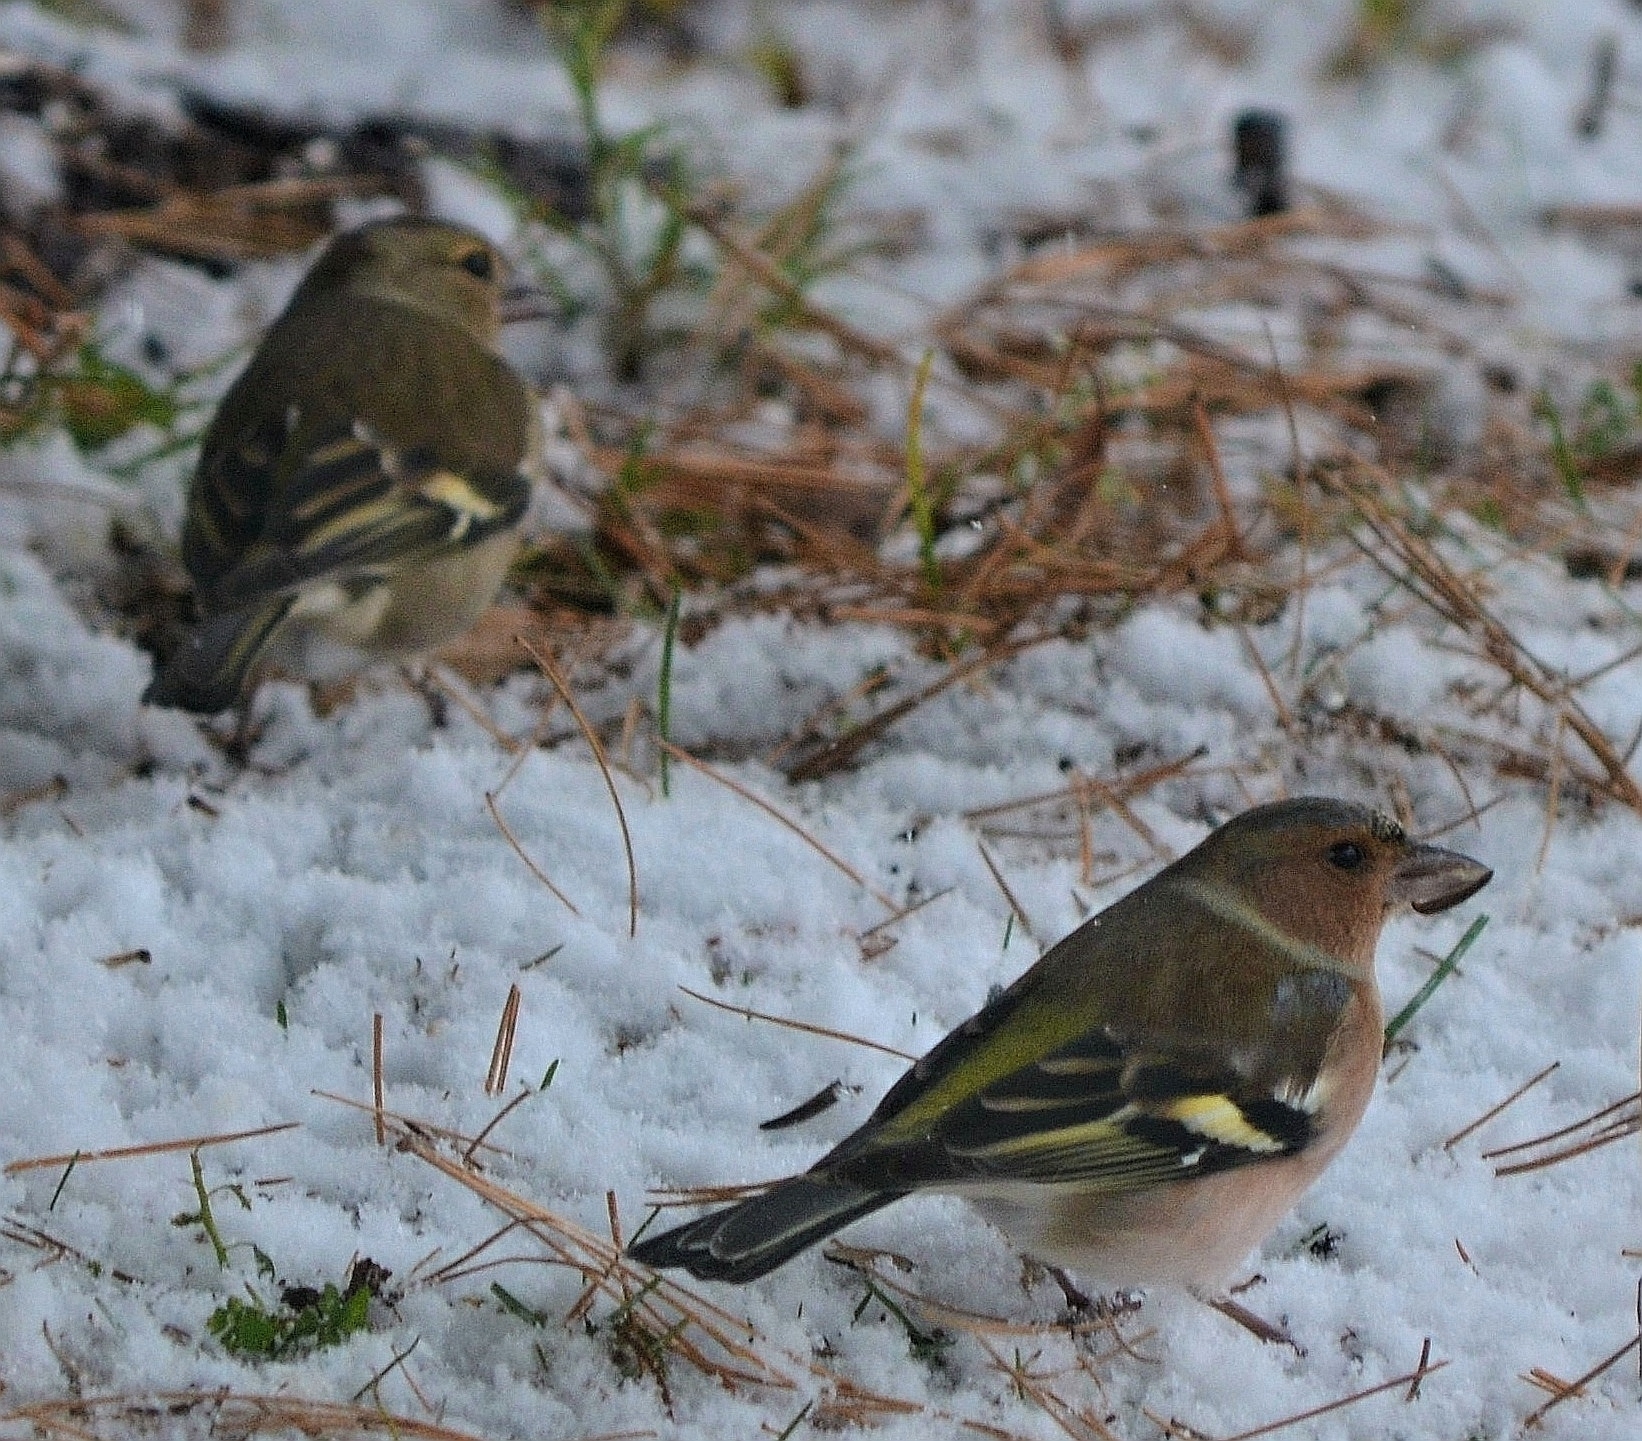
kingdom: Animalia
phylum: Chordata
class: Aves
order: Passeriformes
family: Fringillidae
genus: Fringilla
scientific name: Fringilla coelebs
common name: Common chaffinch
